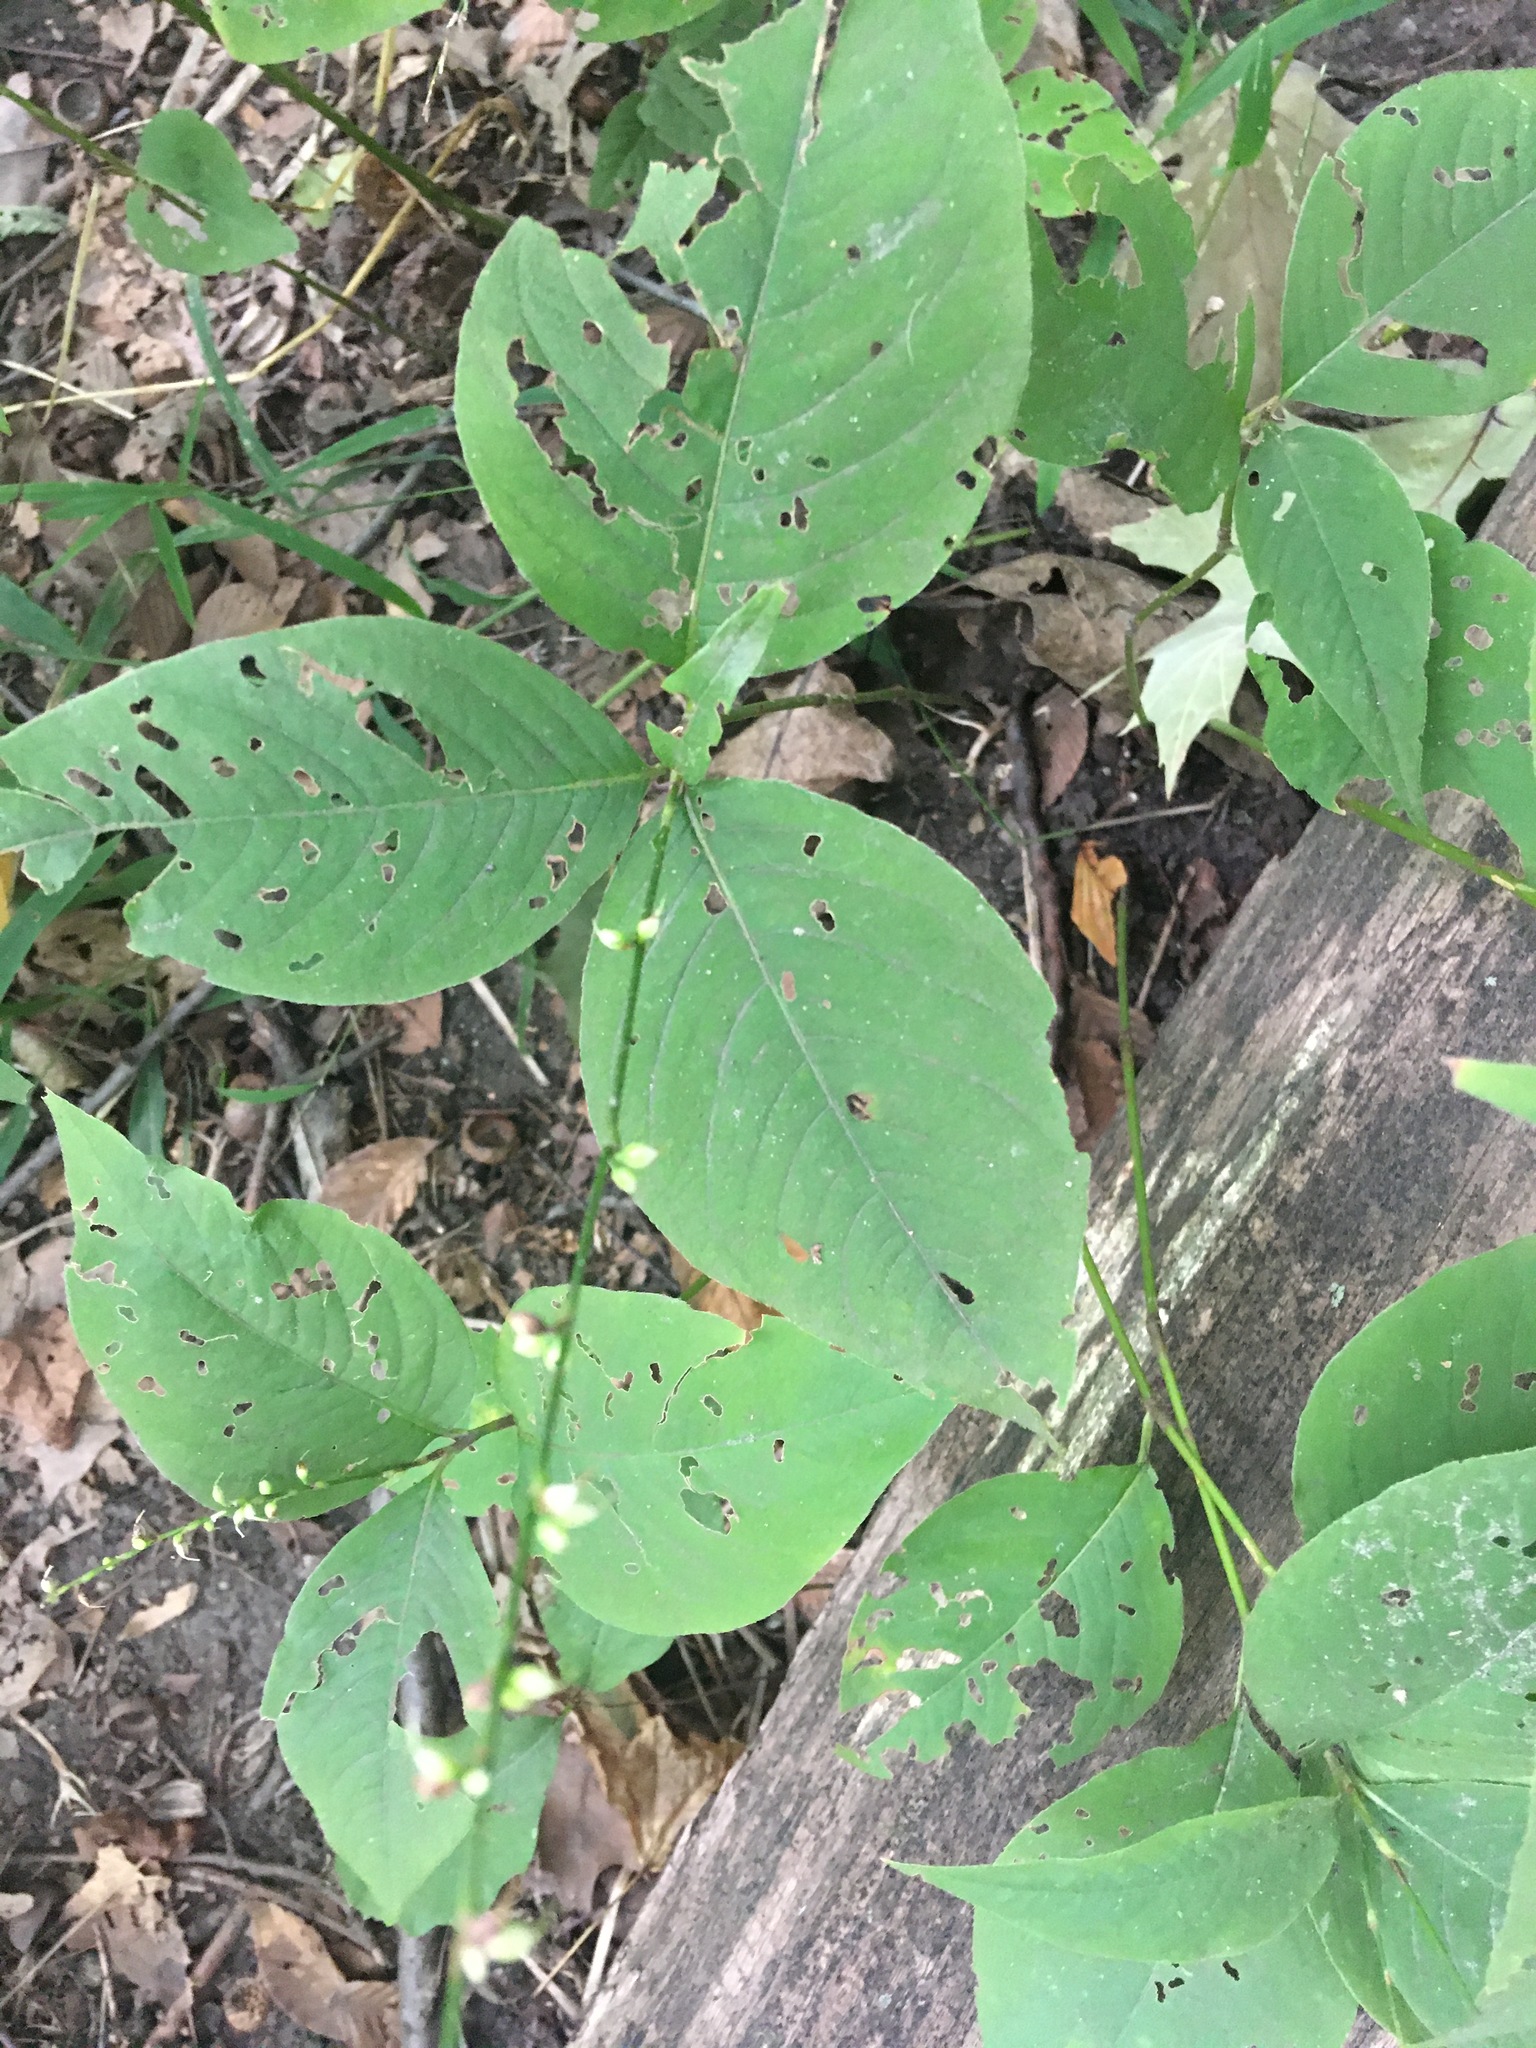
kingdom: Plantae
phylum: Tracheophyta
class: Magnoliopsida
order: Caryophyllales
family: Polygonaceae
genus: Persicaria
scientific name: Persicaria virginiana
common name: Jumpseed
